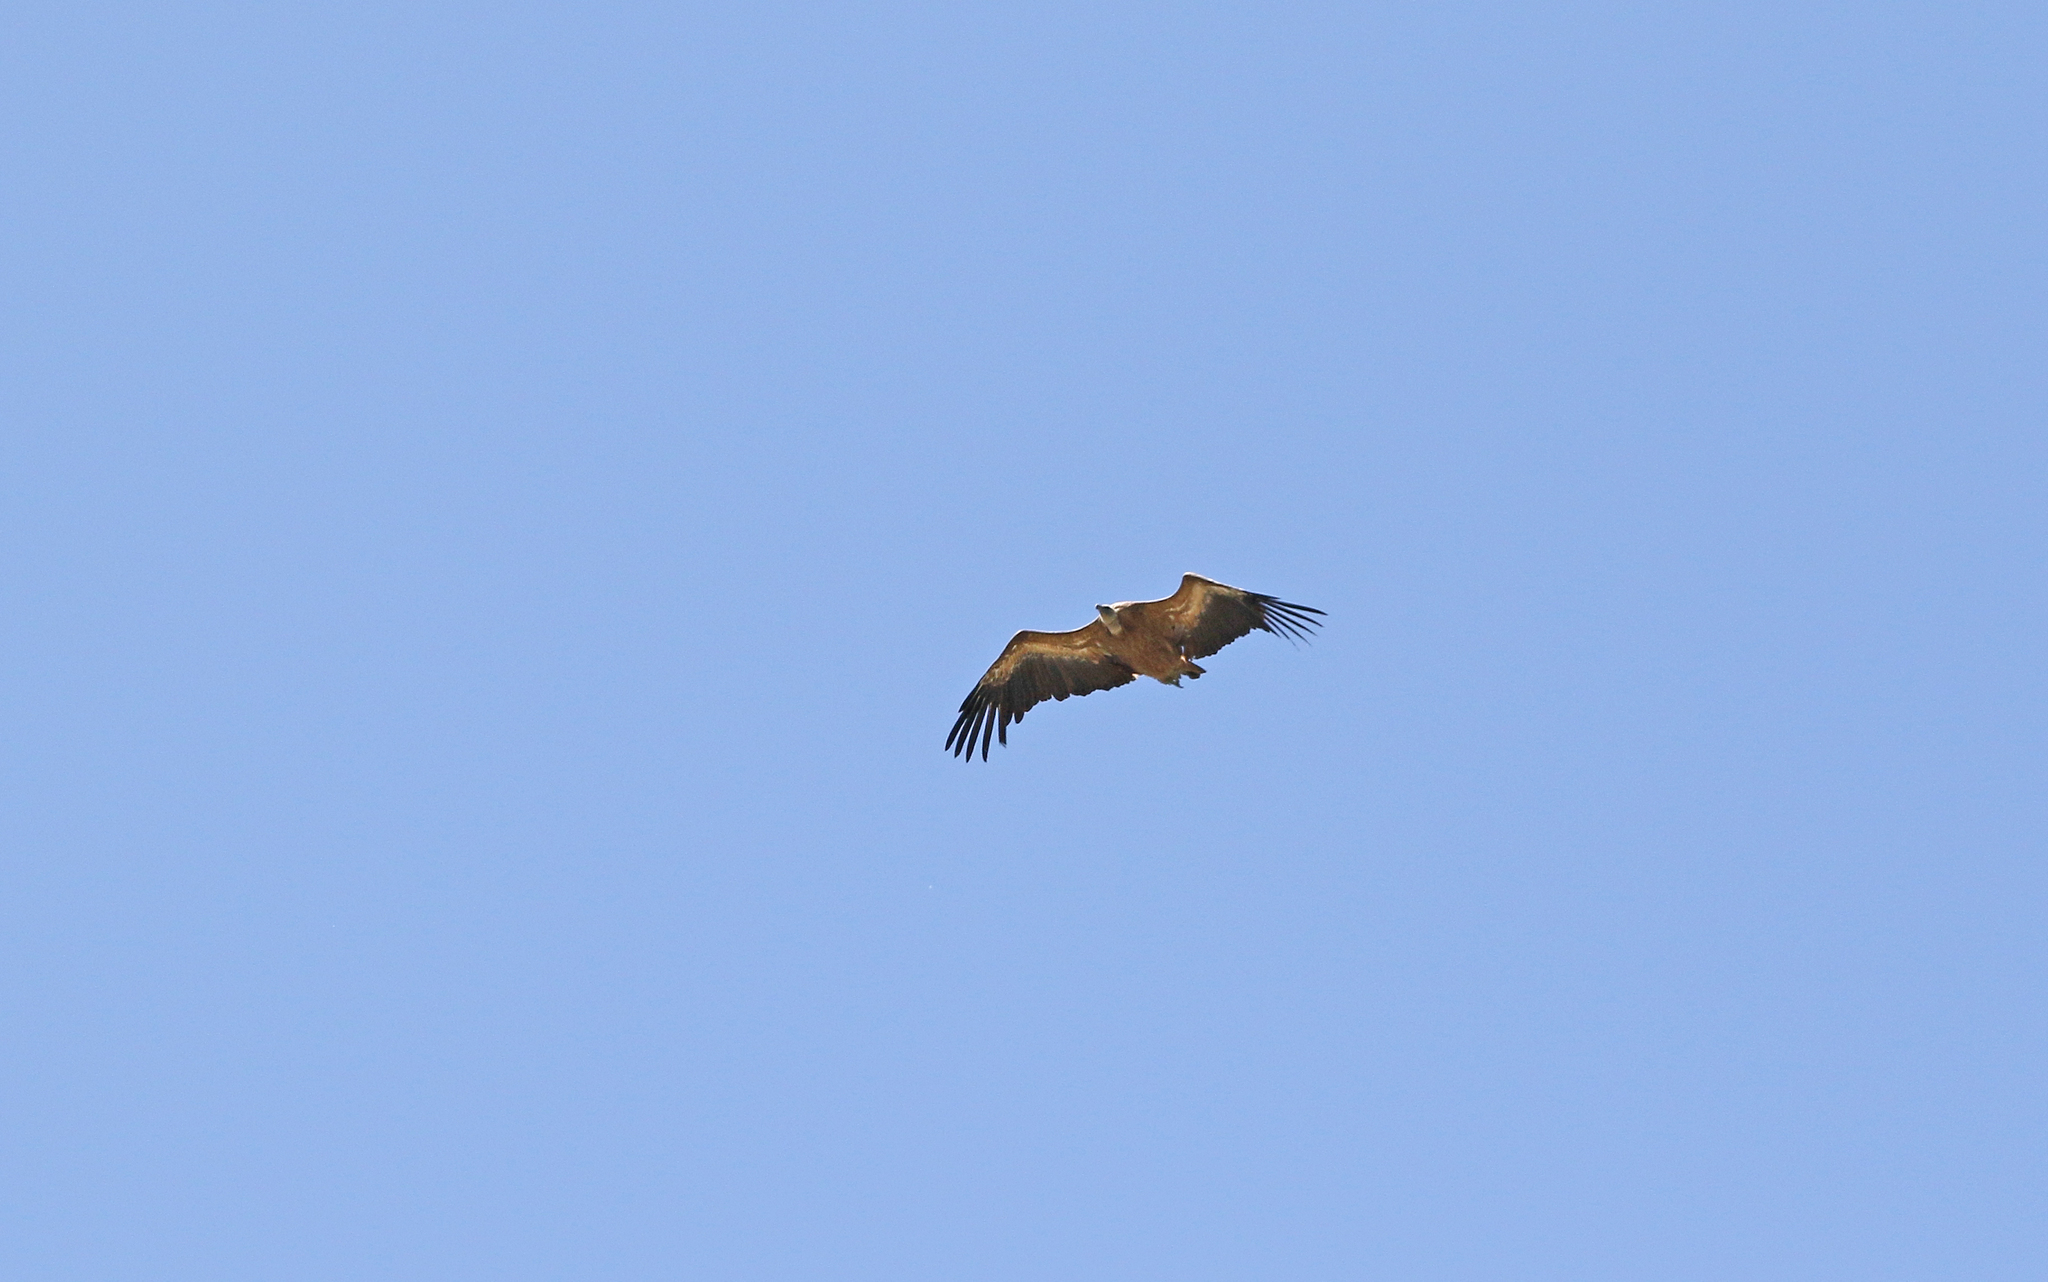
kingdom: Animalia
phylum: Chordata
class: Aves
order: Accipitriformes
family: Accipitridae
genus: Gyps
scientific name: Gyps fulvus
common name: Griffon vulture
